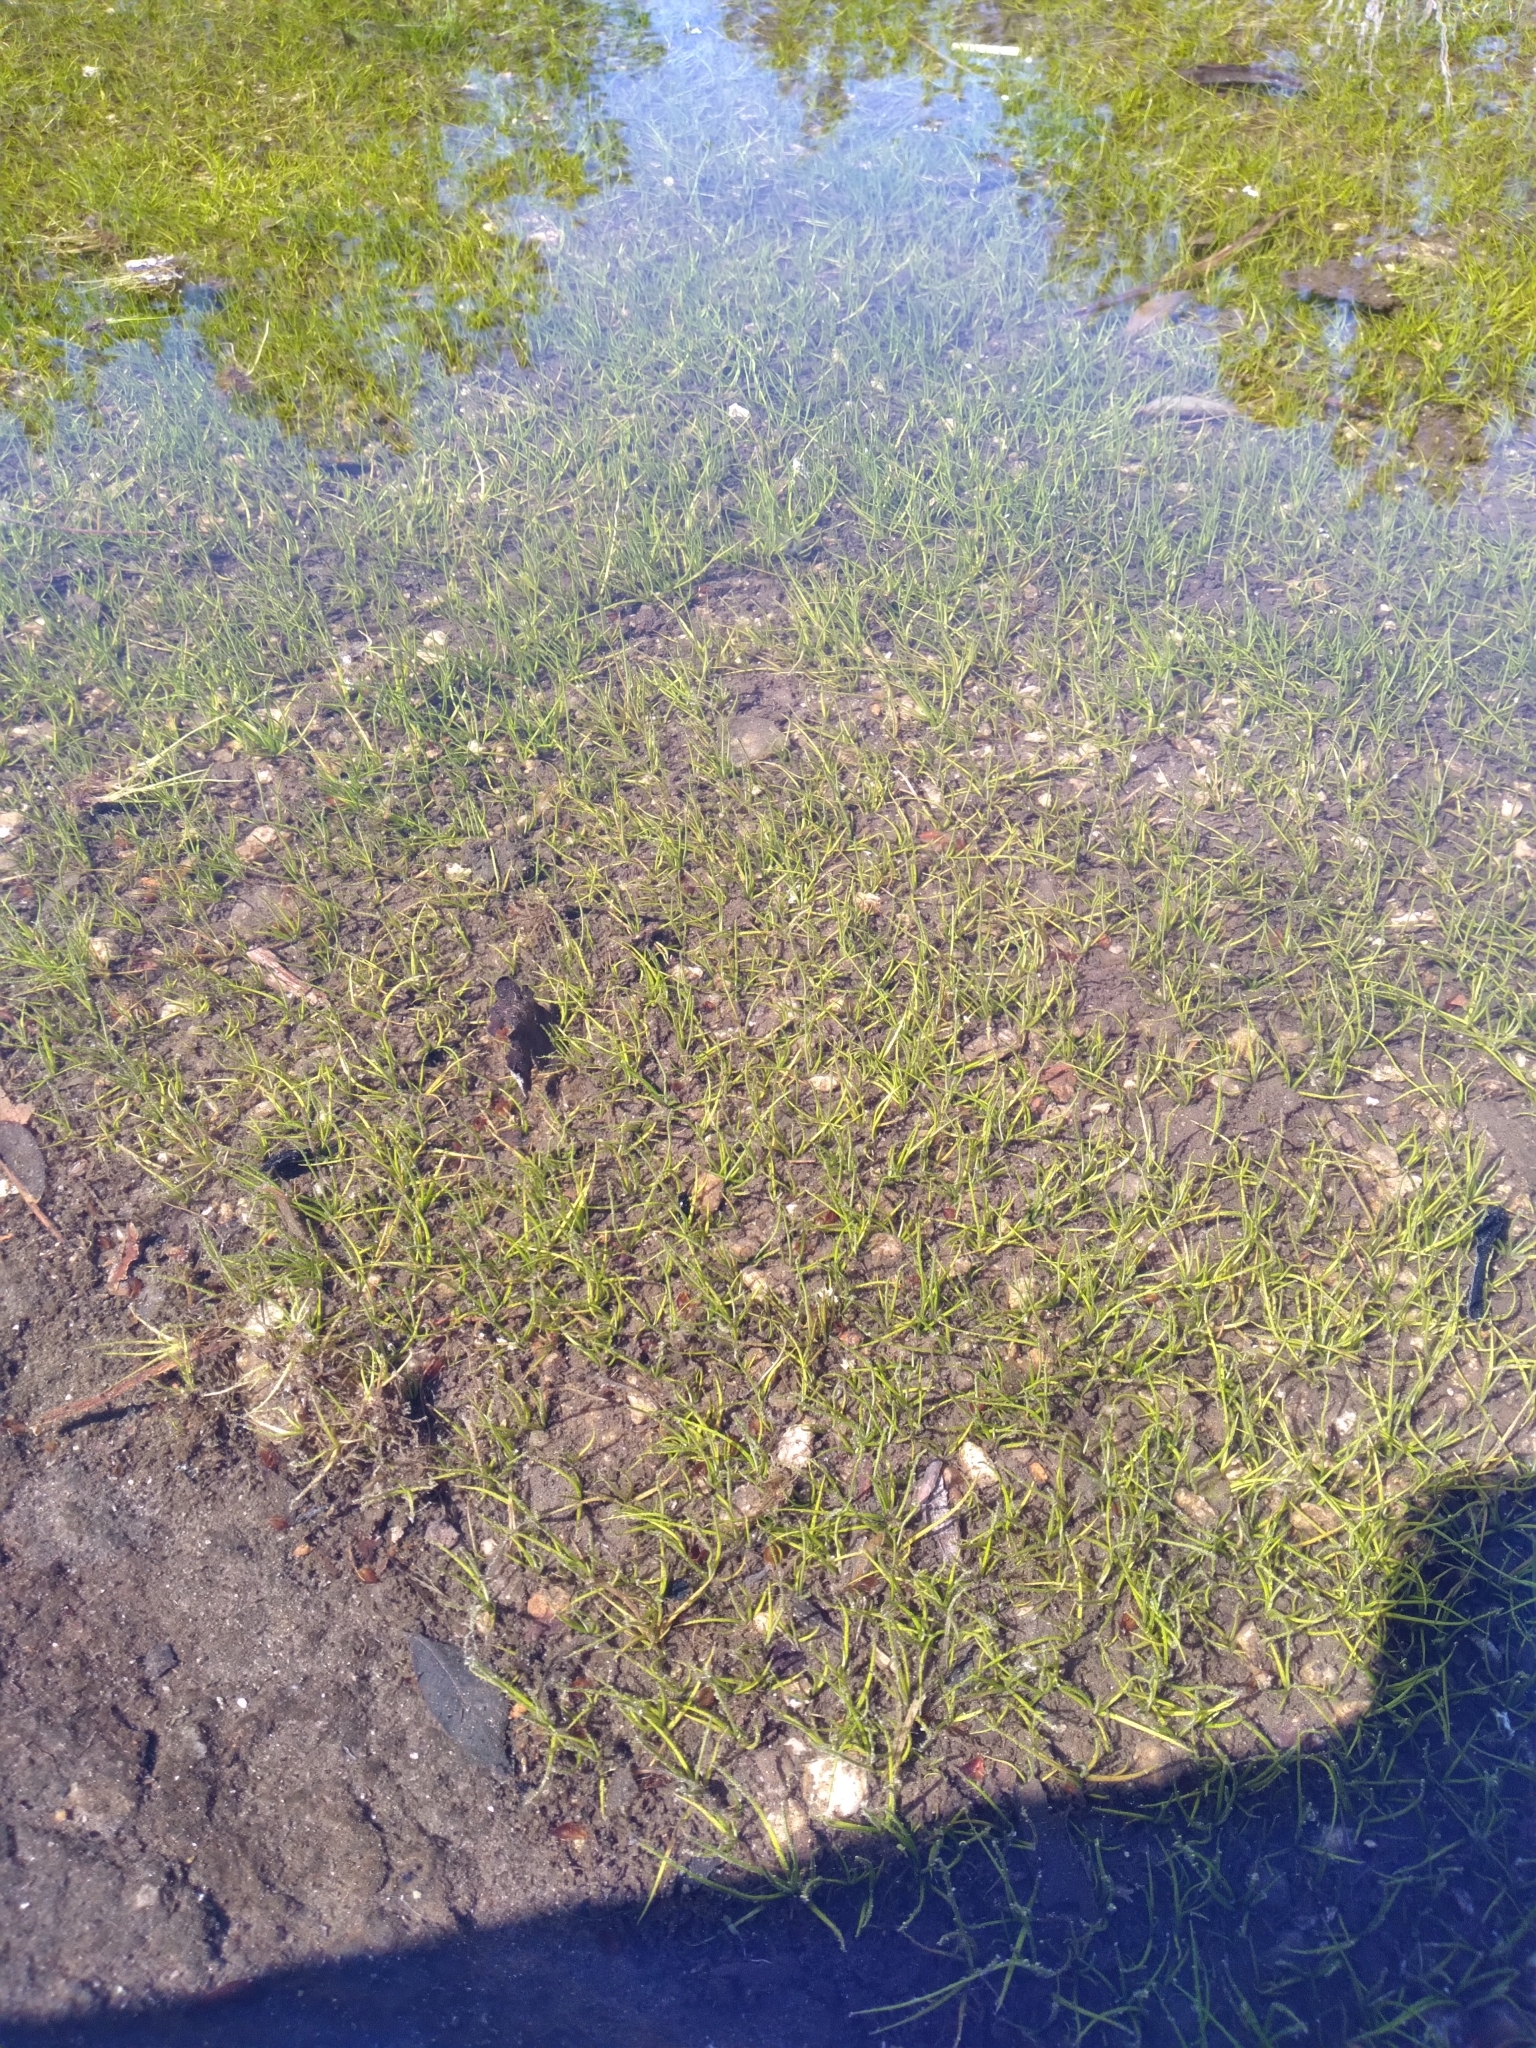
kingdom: Plantae
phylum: Tracheophyta
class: Lycopodiopsida
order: Isoetales
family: Isoetaceae
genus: Isoetes
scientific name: Isoetes virginica
